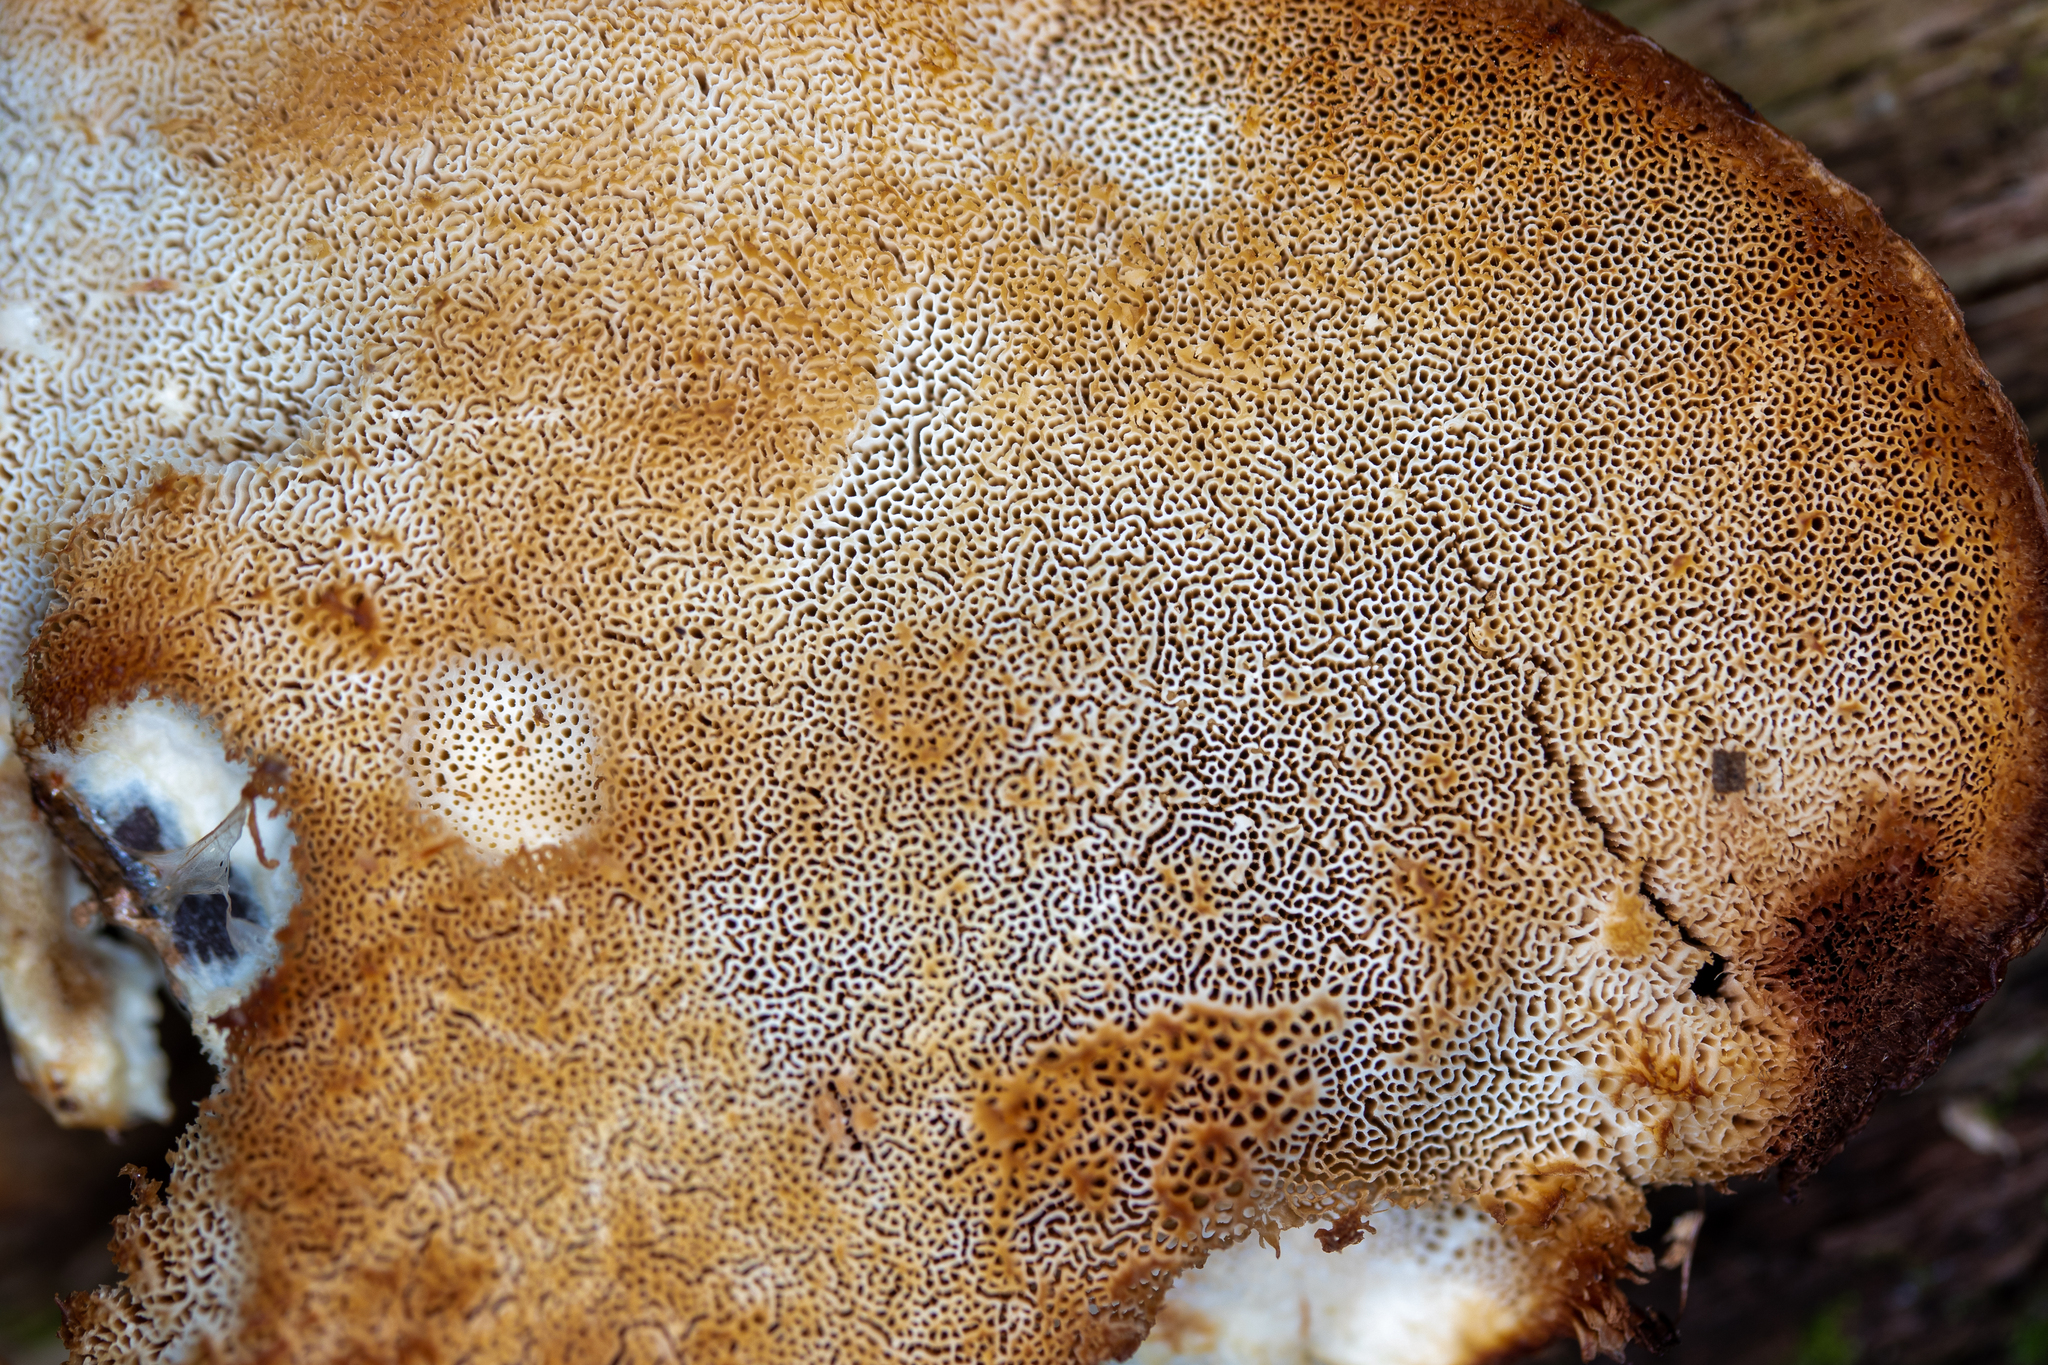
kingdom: Fungi
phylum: Basidiomycota
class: Agaricomycetes
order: Polyporales
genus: Fuscopostia
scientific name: Fuscopostia fragilis
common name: Brown-staining cheese polypore
